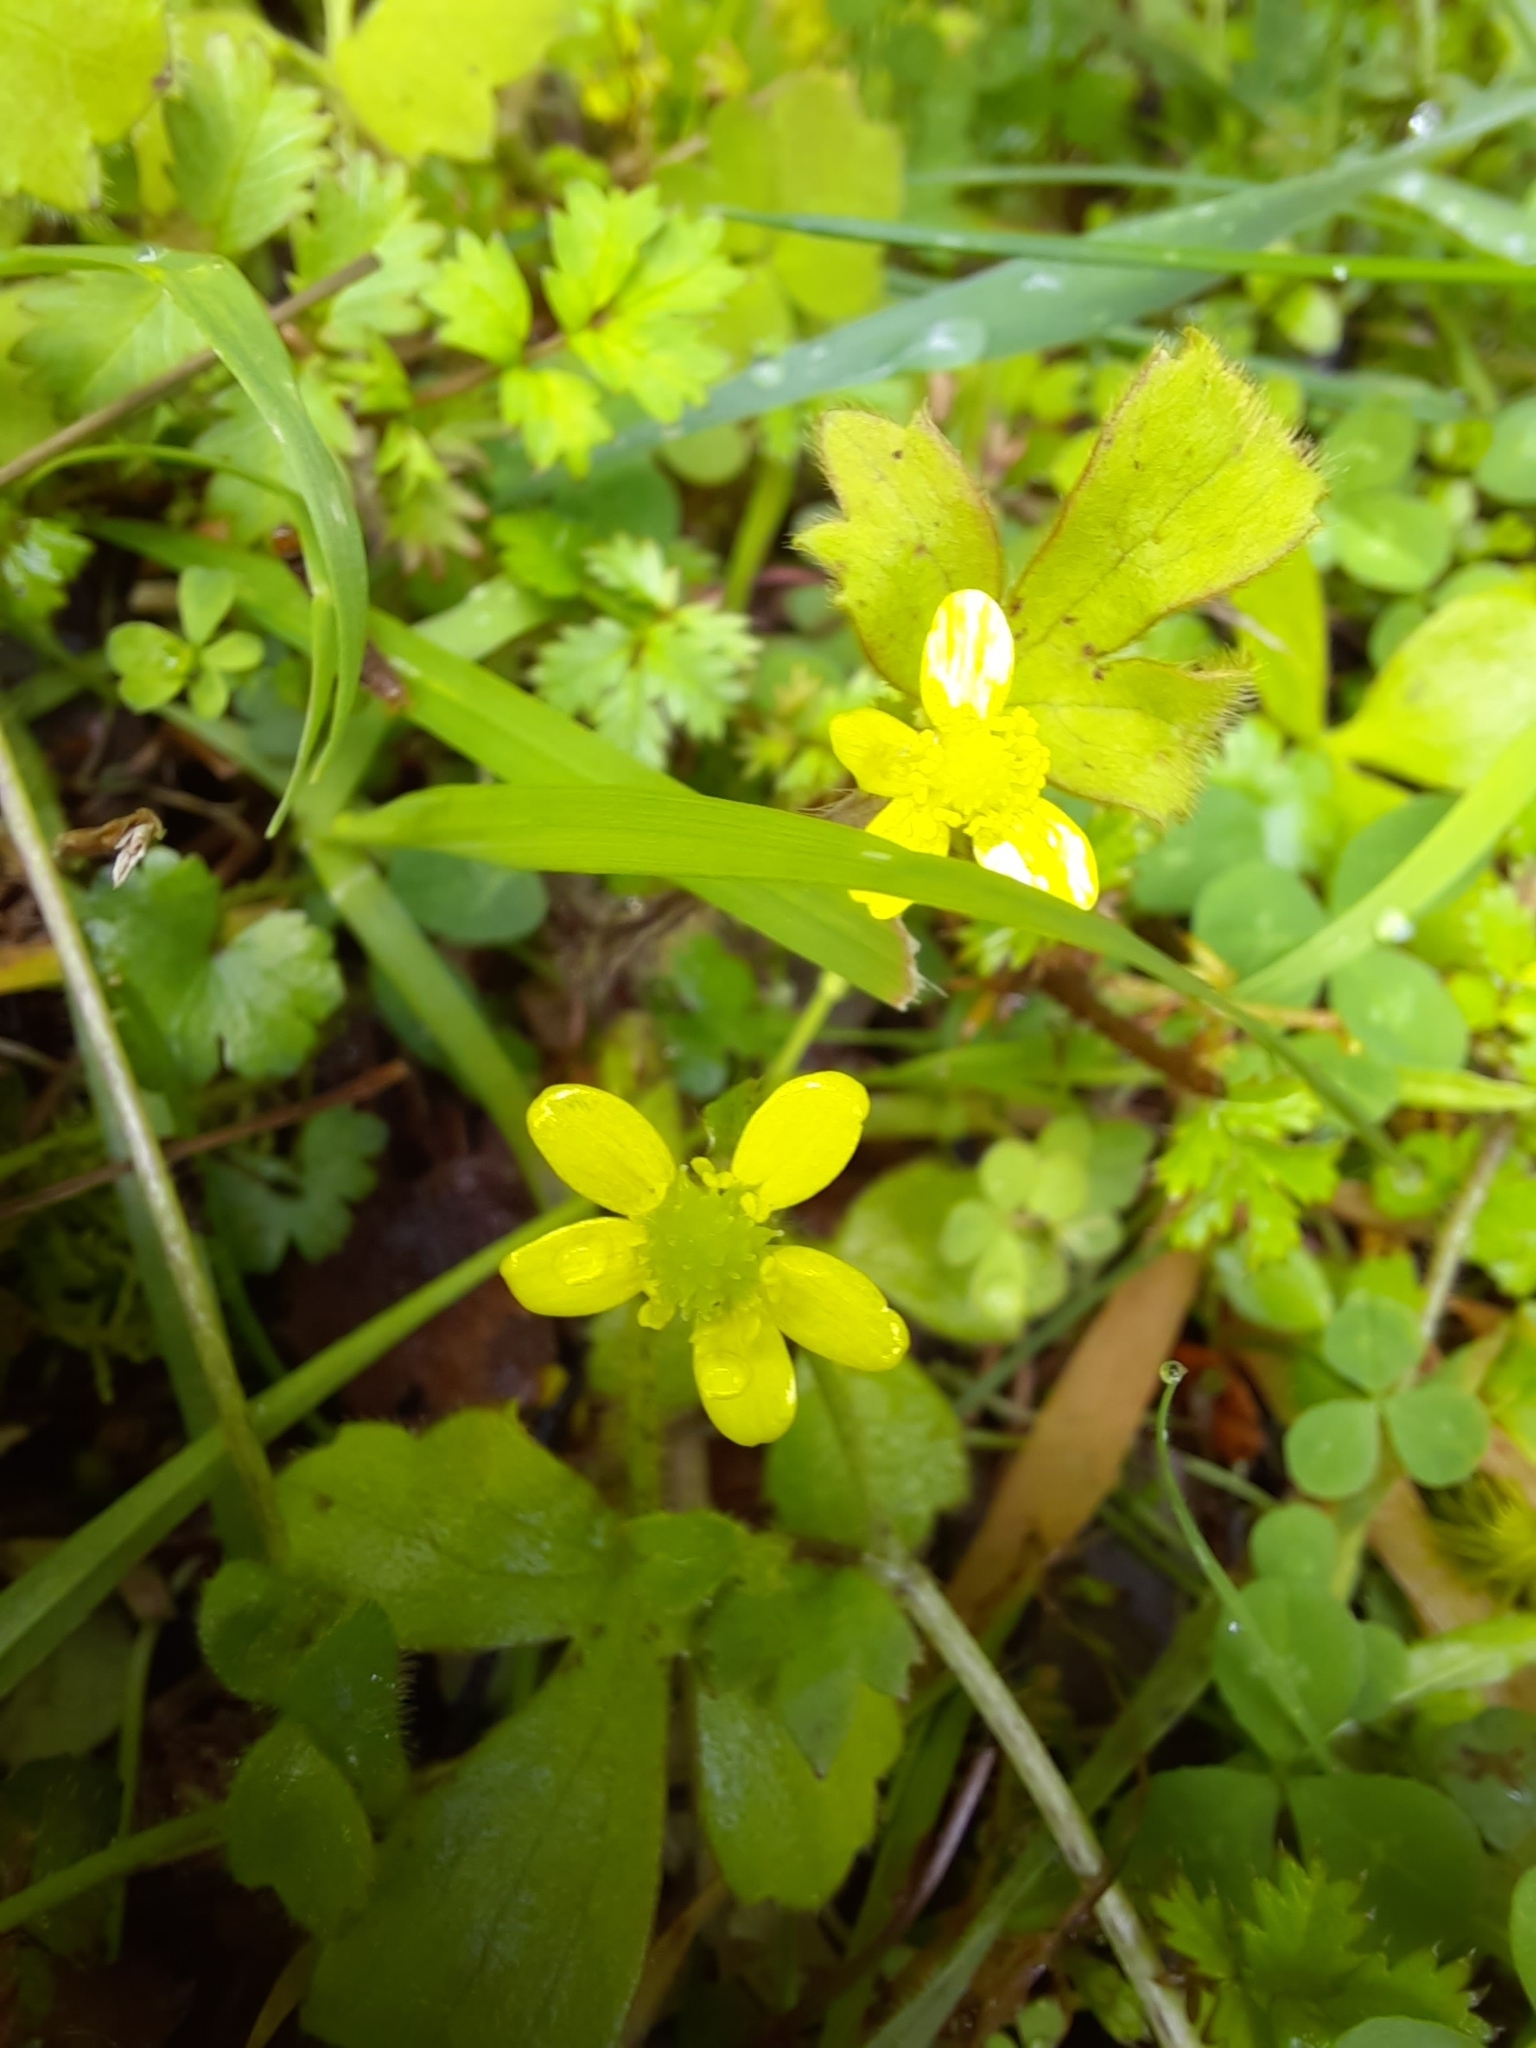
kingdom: Plantae
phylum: Tracheophyta
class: Magnoliopsida
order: Ranunculales
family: Ranunculaceae
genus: Ranunculus
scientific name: Ranunculus reflexus
